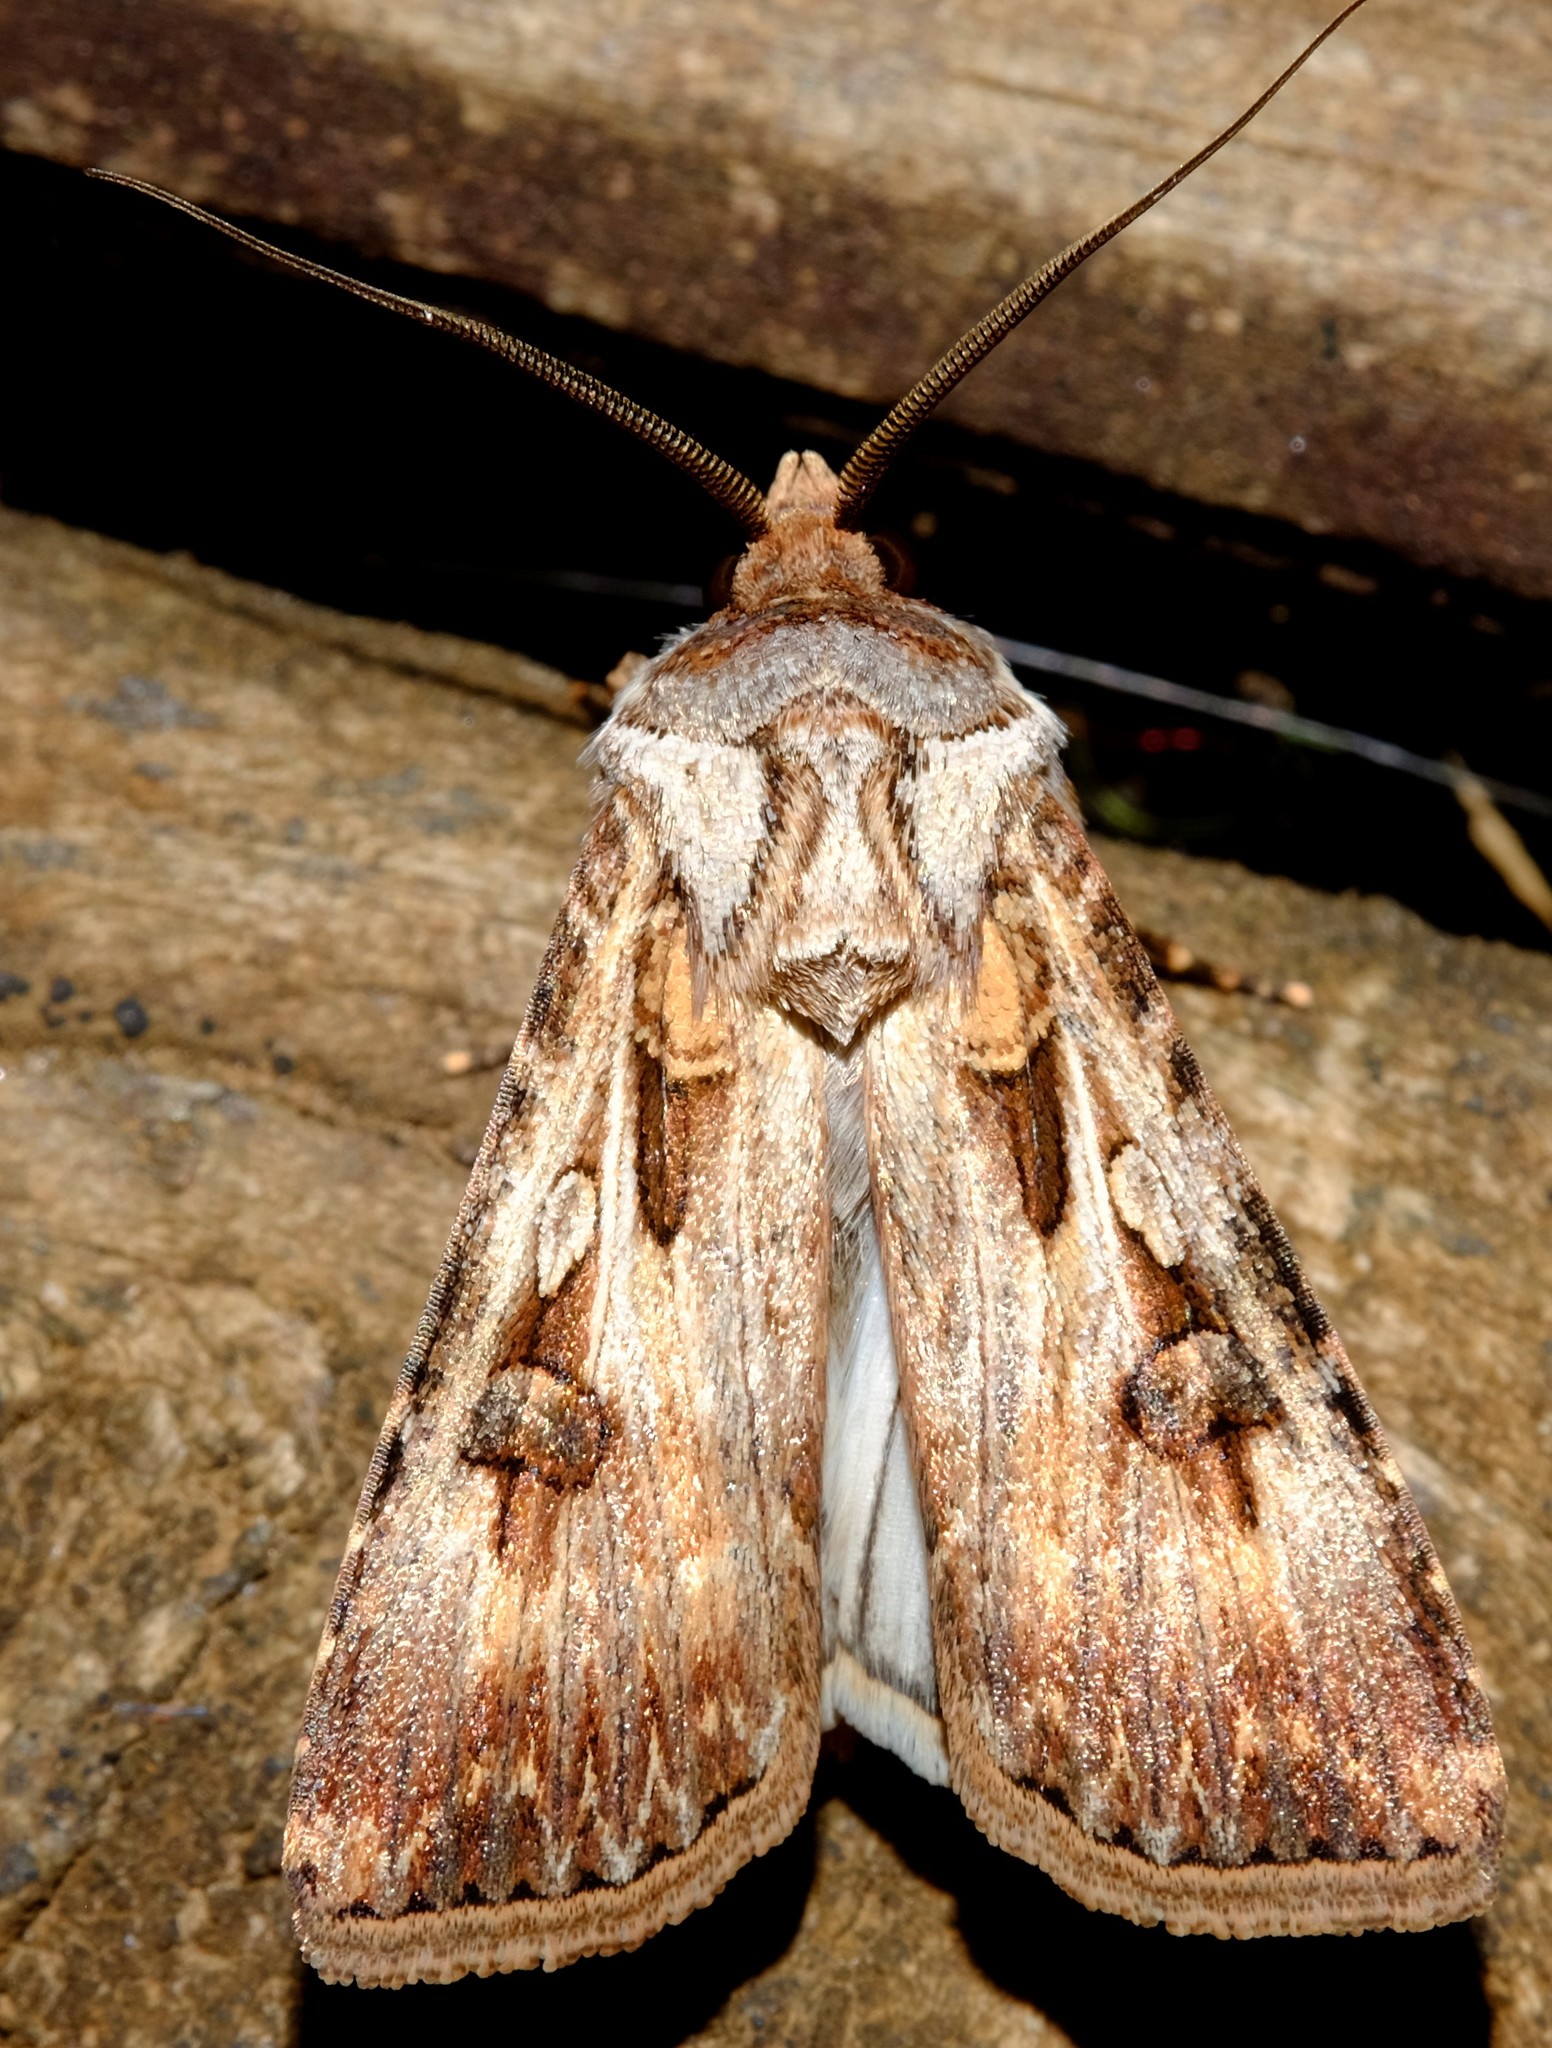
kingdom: Animalia
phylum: Arthropoda
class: Insecta
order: Lepidoptera
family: Noctuidae
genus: Agrotis
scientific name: Agrotis munda
